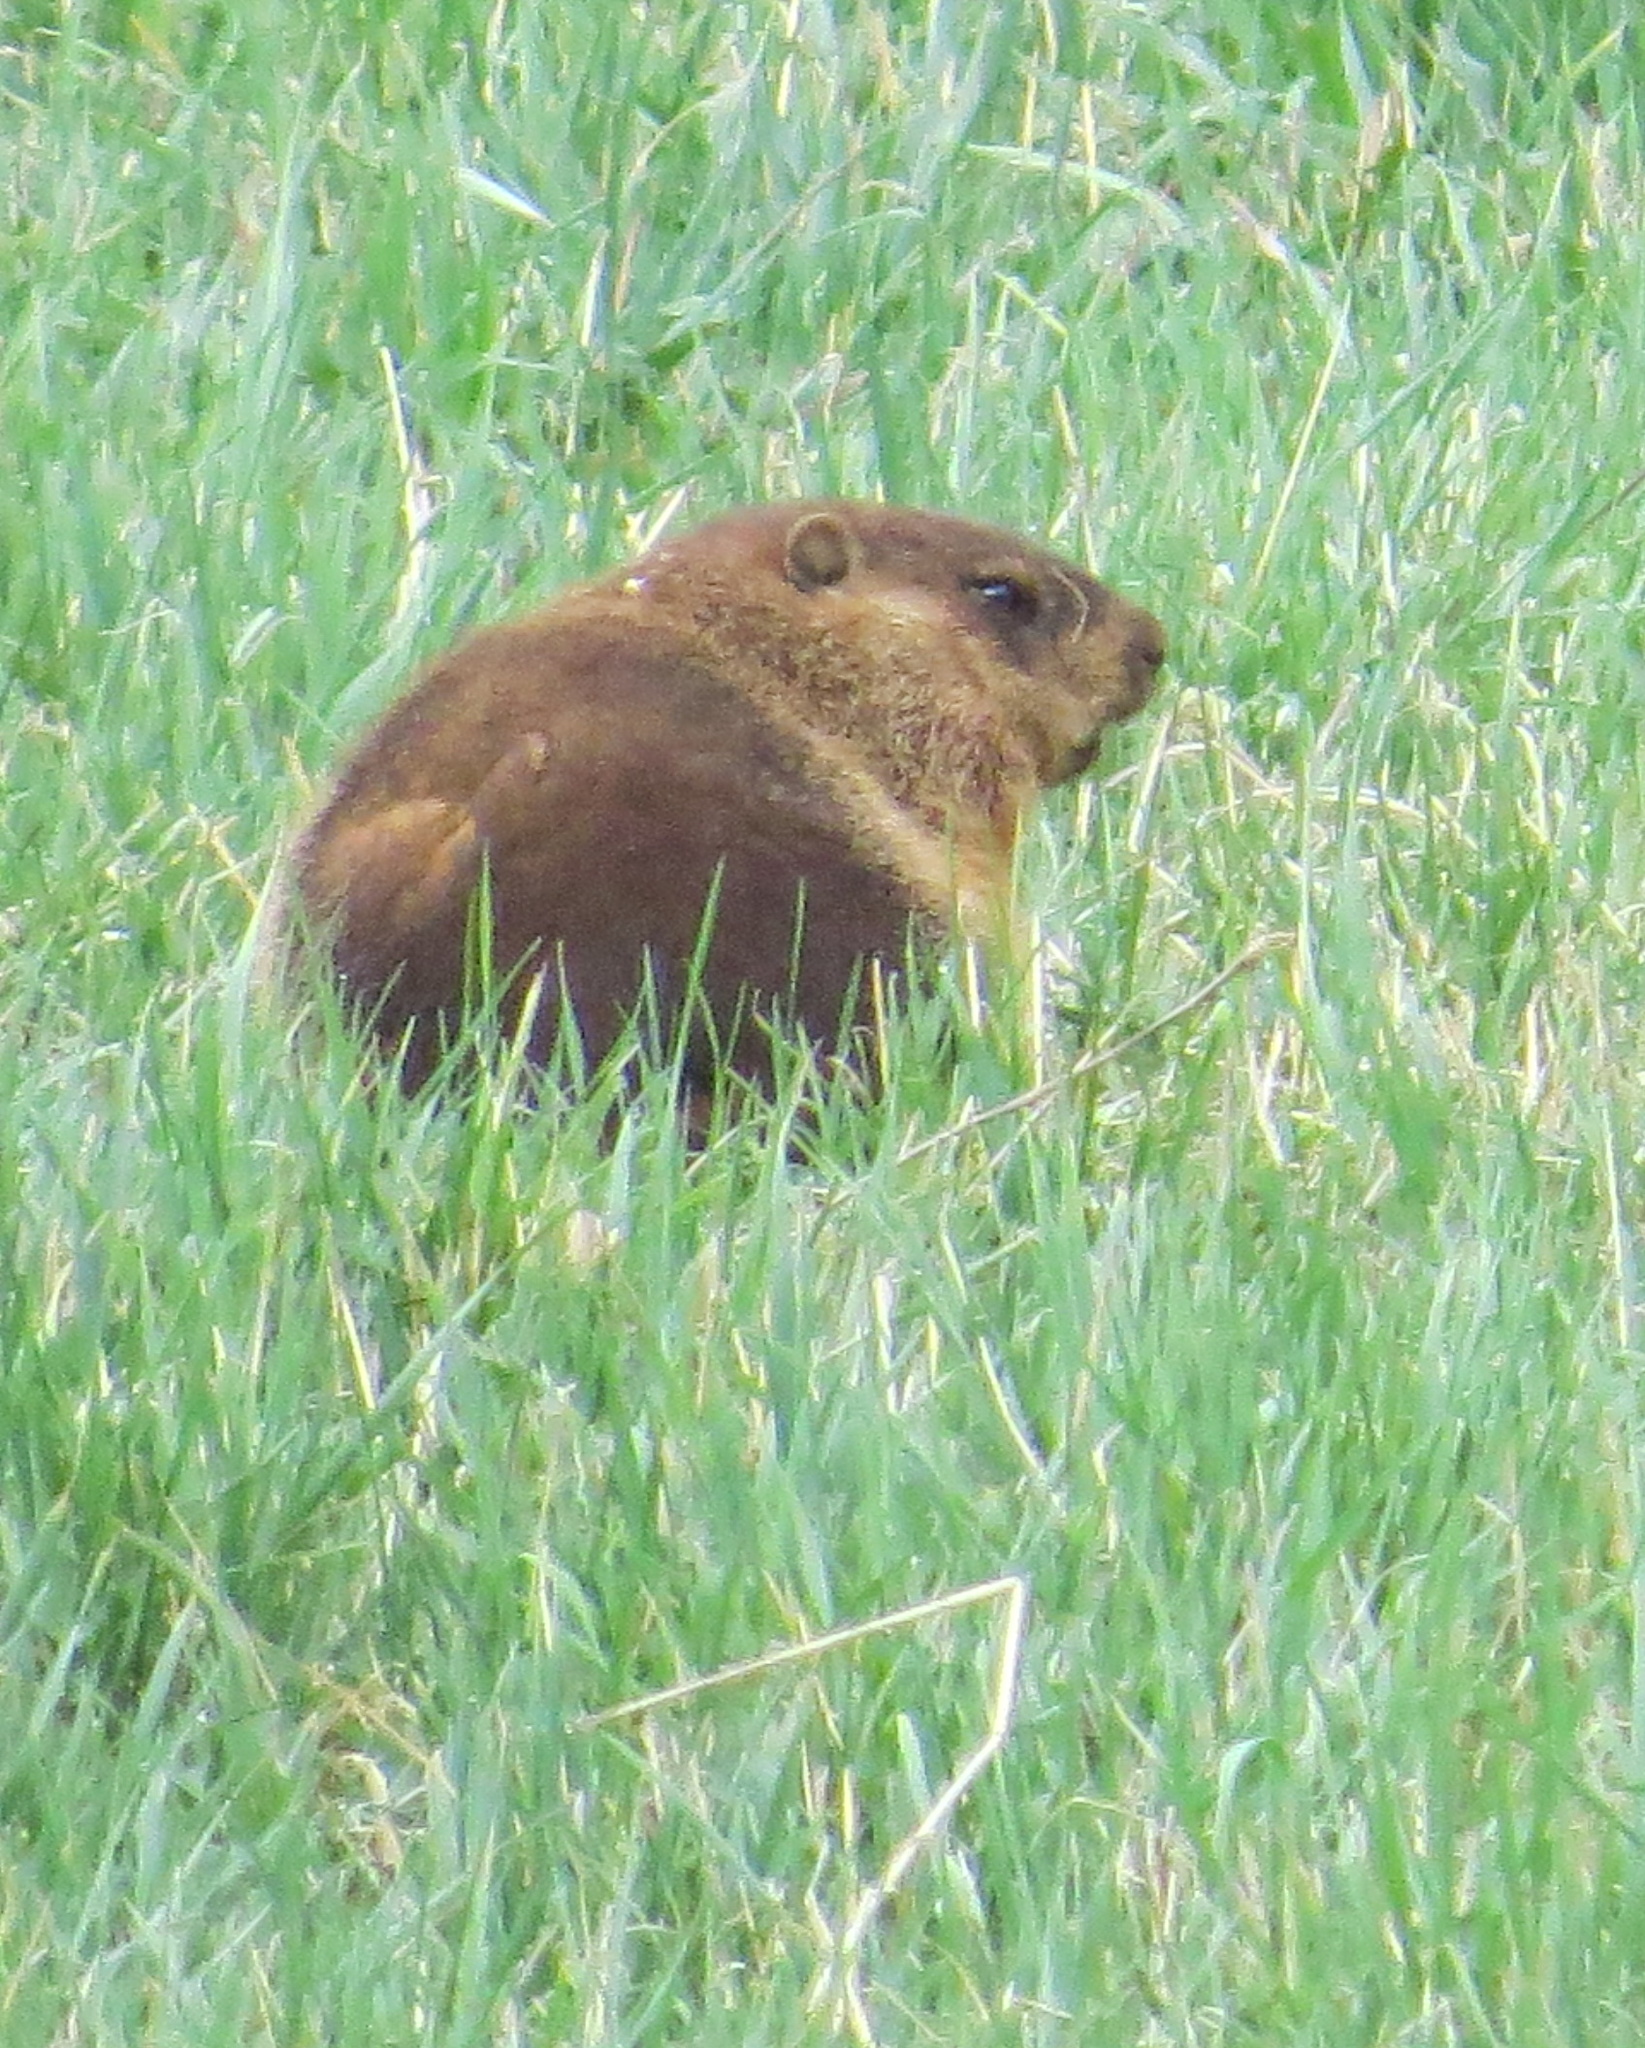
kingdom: Animalia
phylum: Chordata
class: Mammalia
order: Rodentia
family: Sciuridae
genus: Marmota
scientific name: Marmota monax
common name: Groundhog
